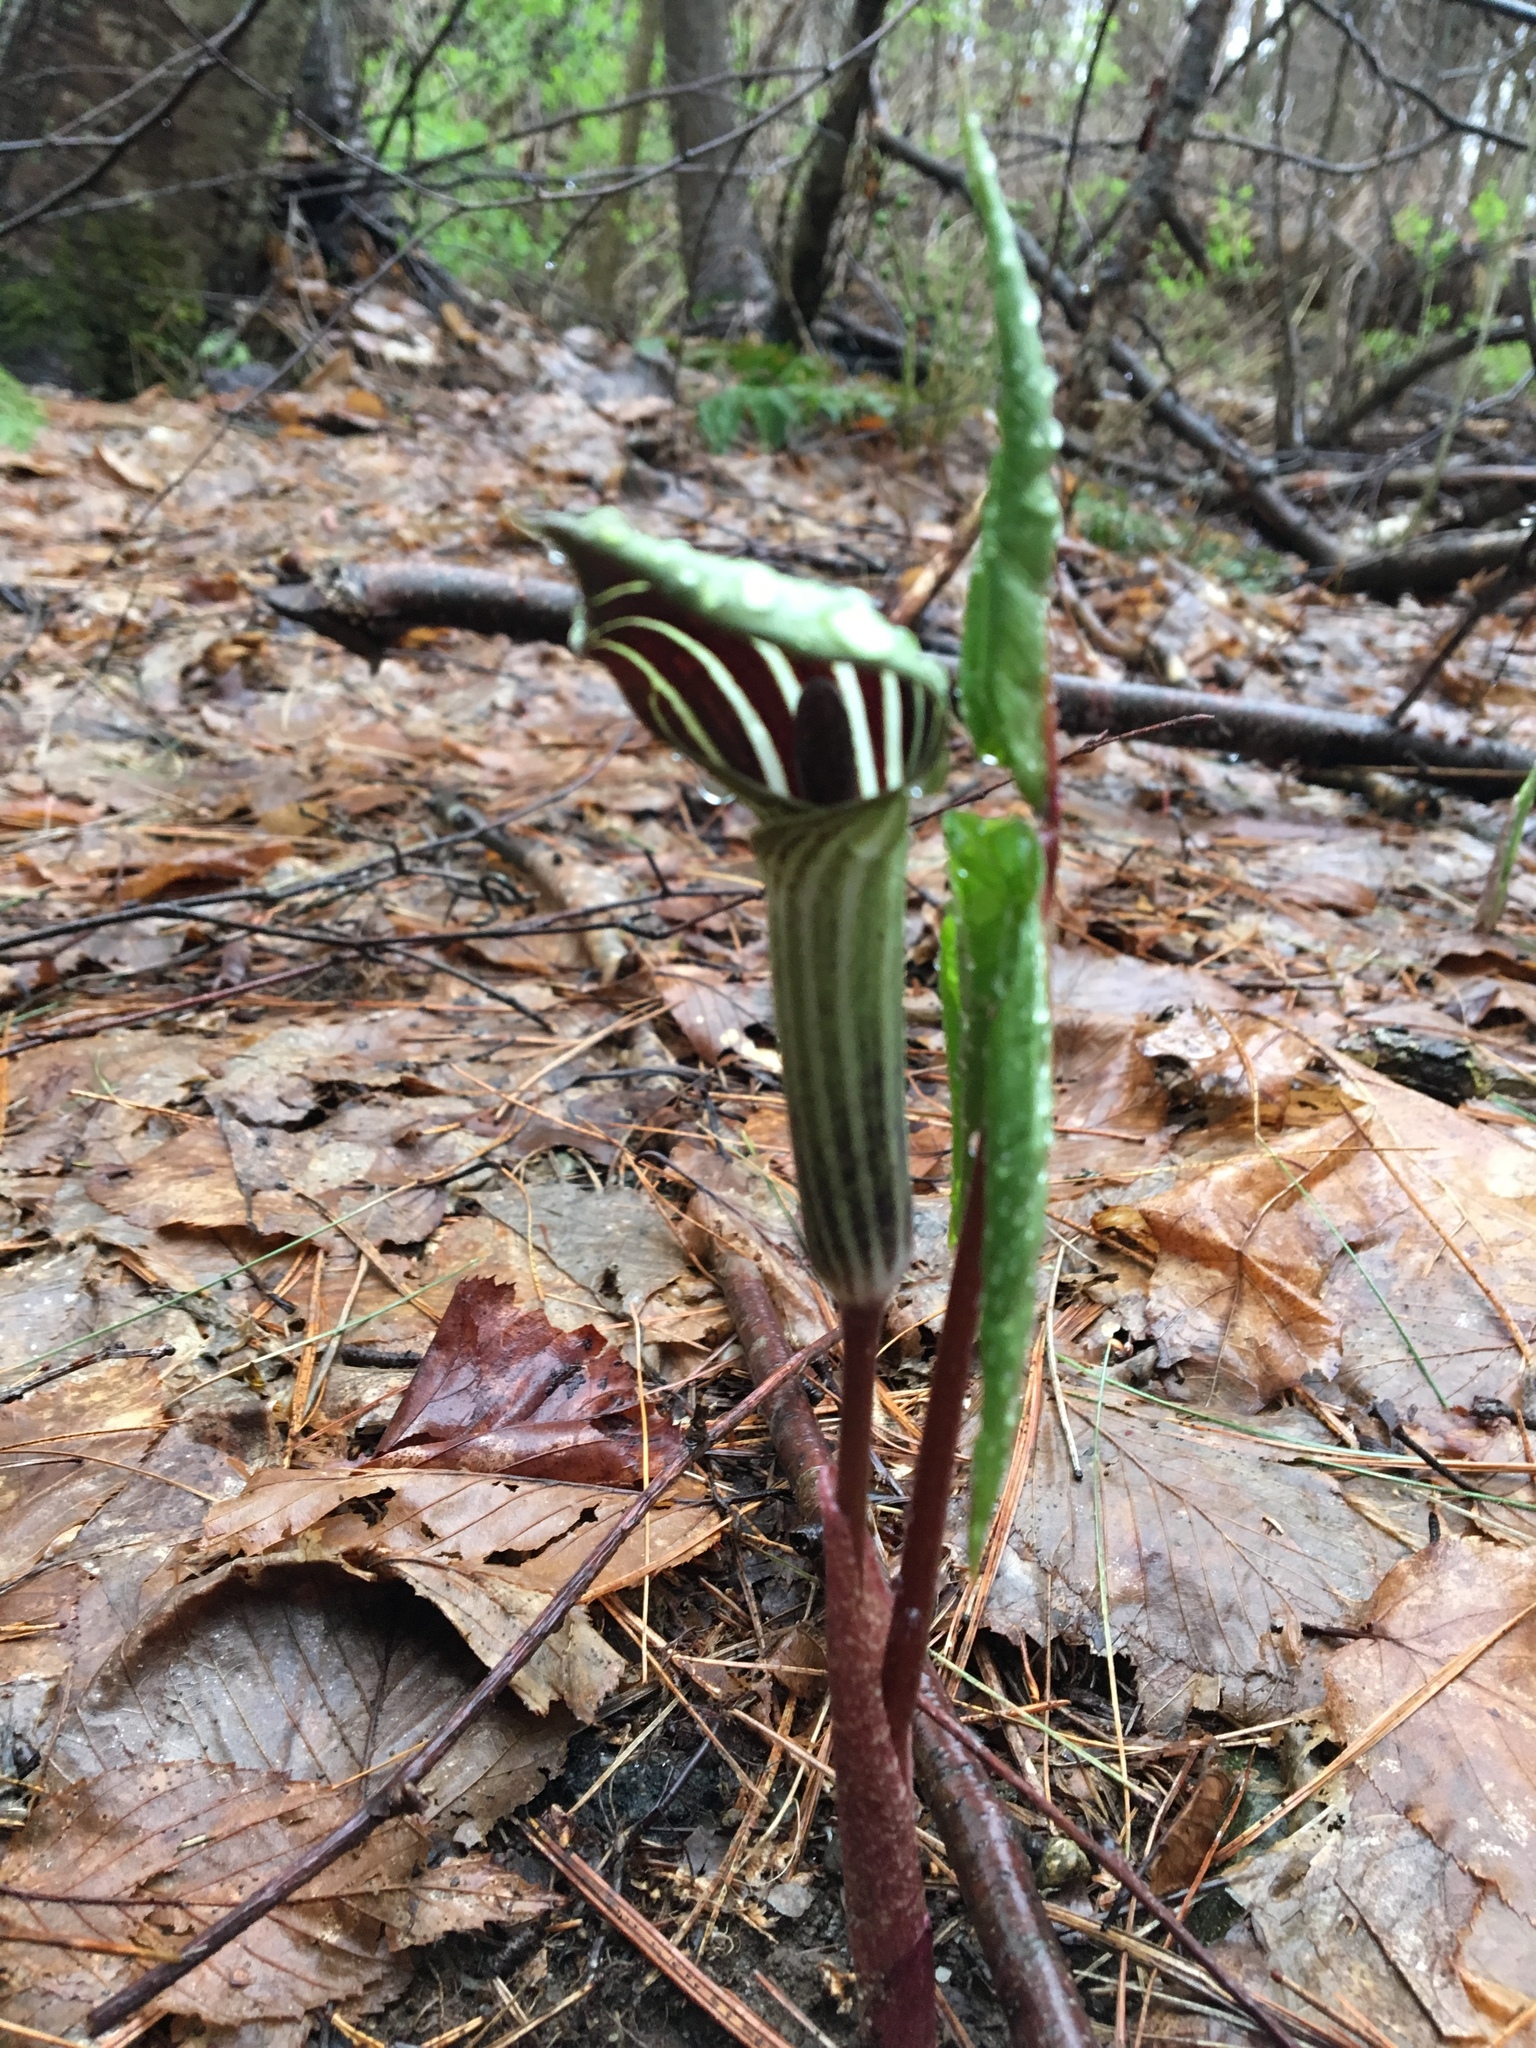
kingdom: Plantae
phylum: Tracheophyta
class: Liliopsida
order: Alismatales
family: Araceae
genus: Arisaema
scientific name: Arisaema triphyllum
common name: Jack-in-the-pulpit
